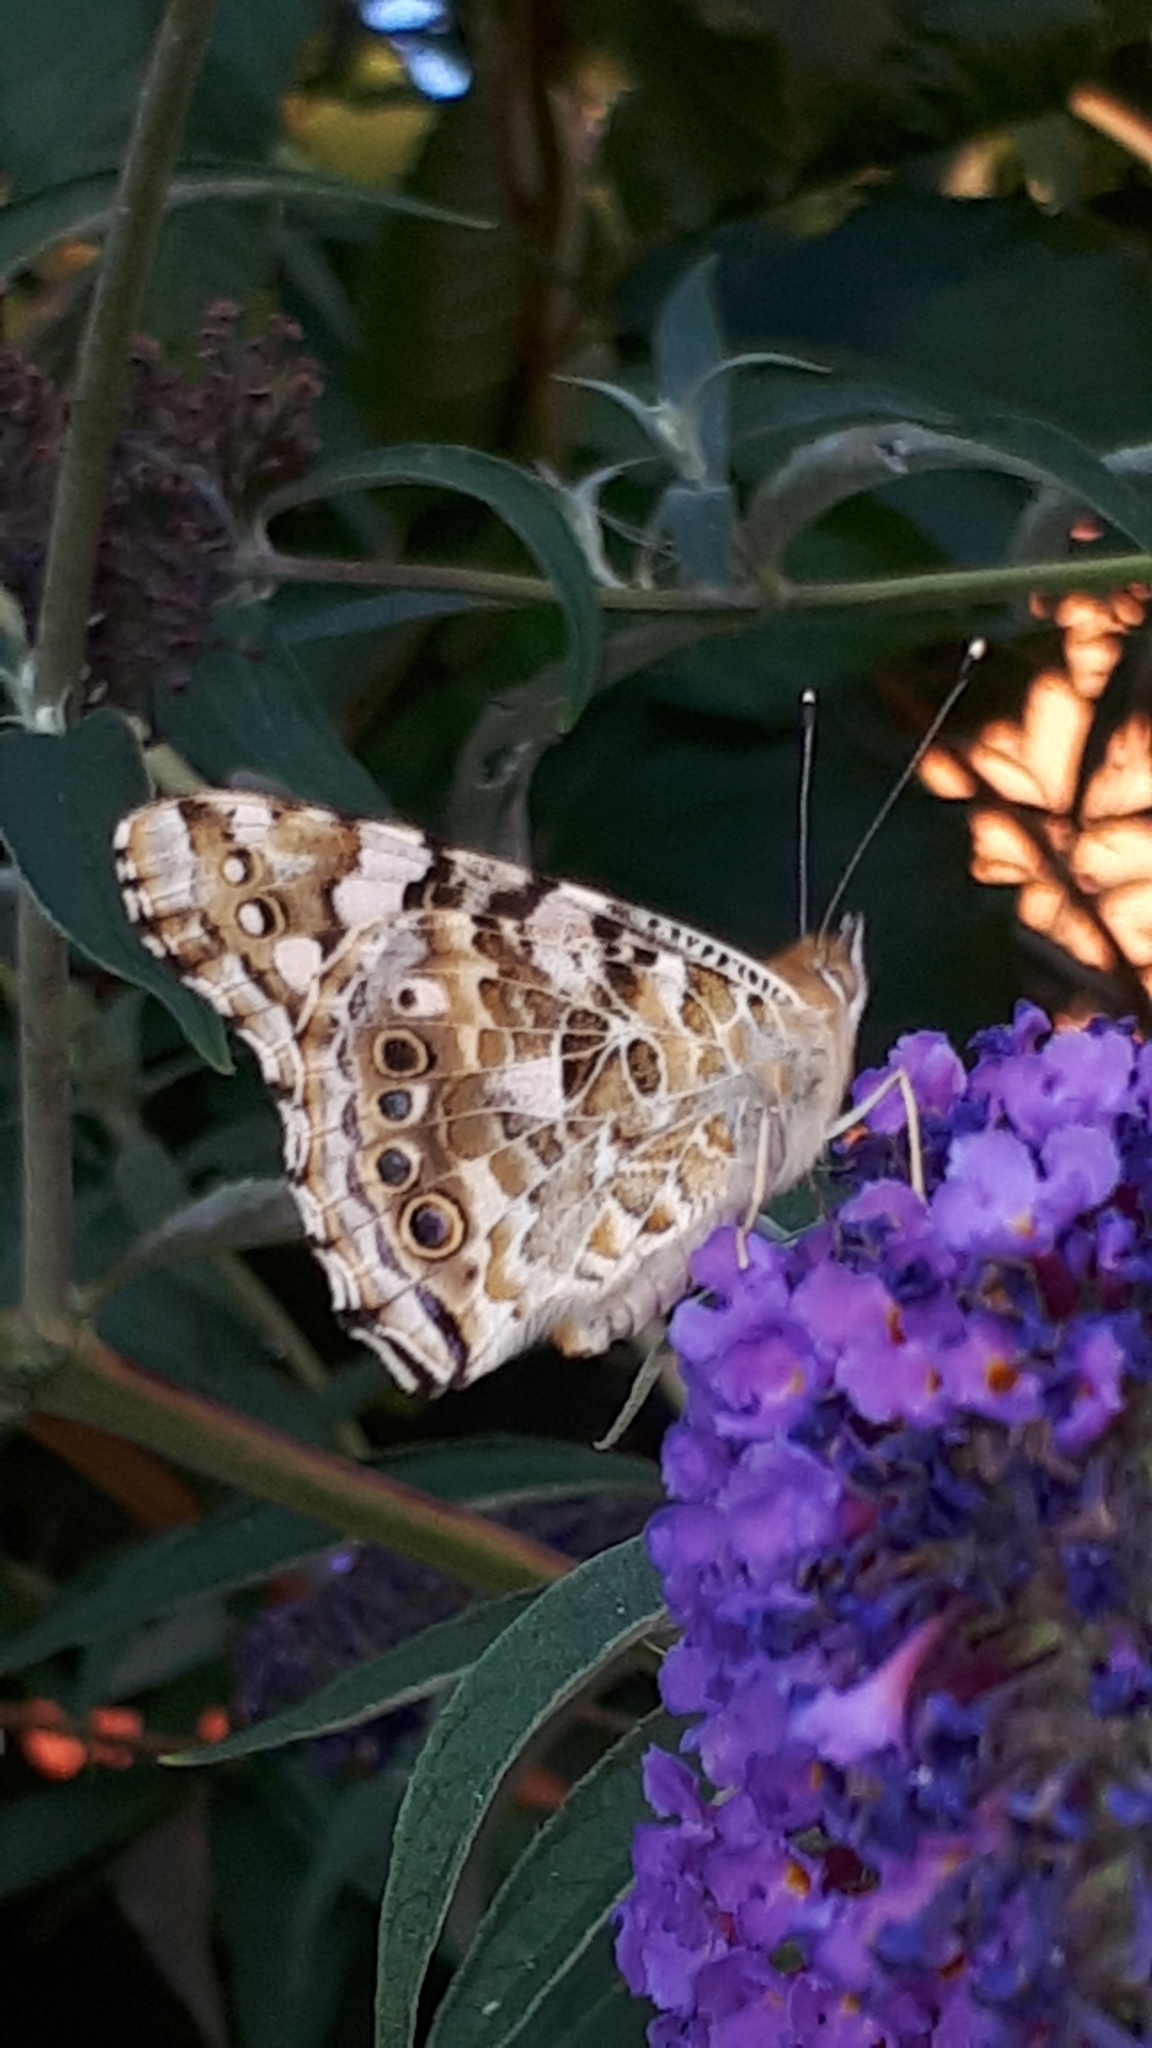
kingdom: Animalia
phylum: Arthropoda
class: Insecta
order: Lepidoptera
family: Nymphalidae
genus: Vanessa
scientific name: Vanessa cardui
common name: Painted lady
